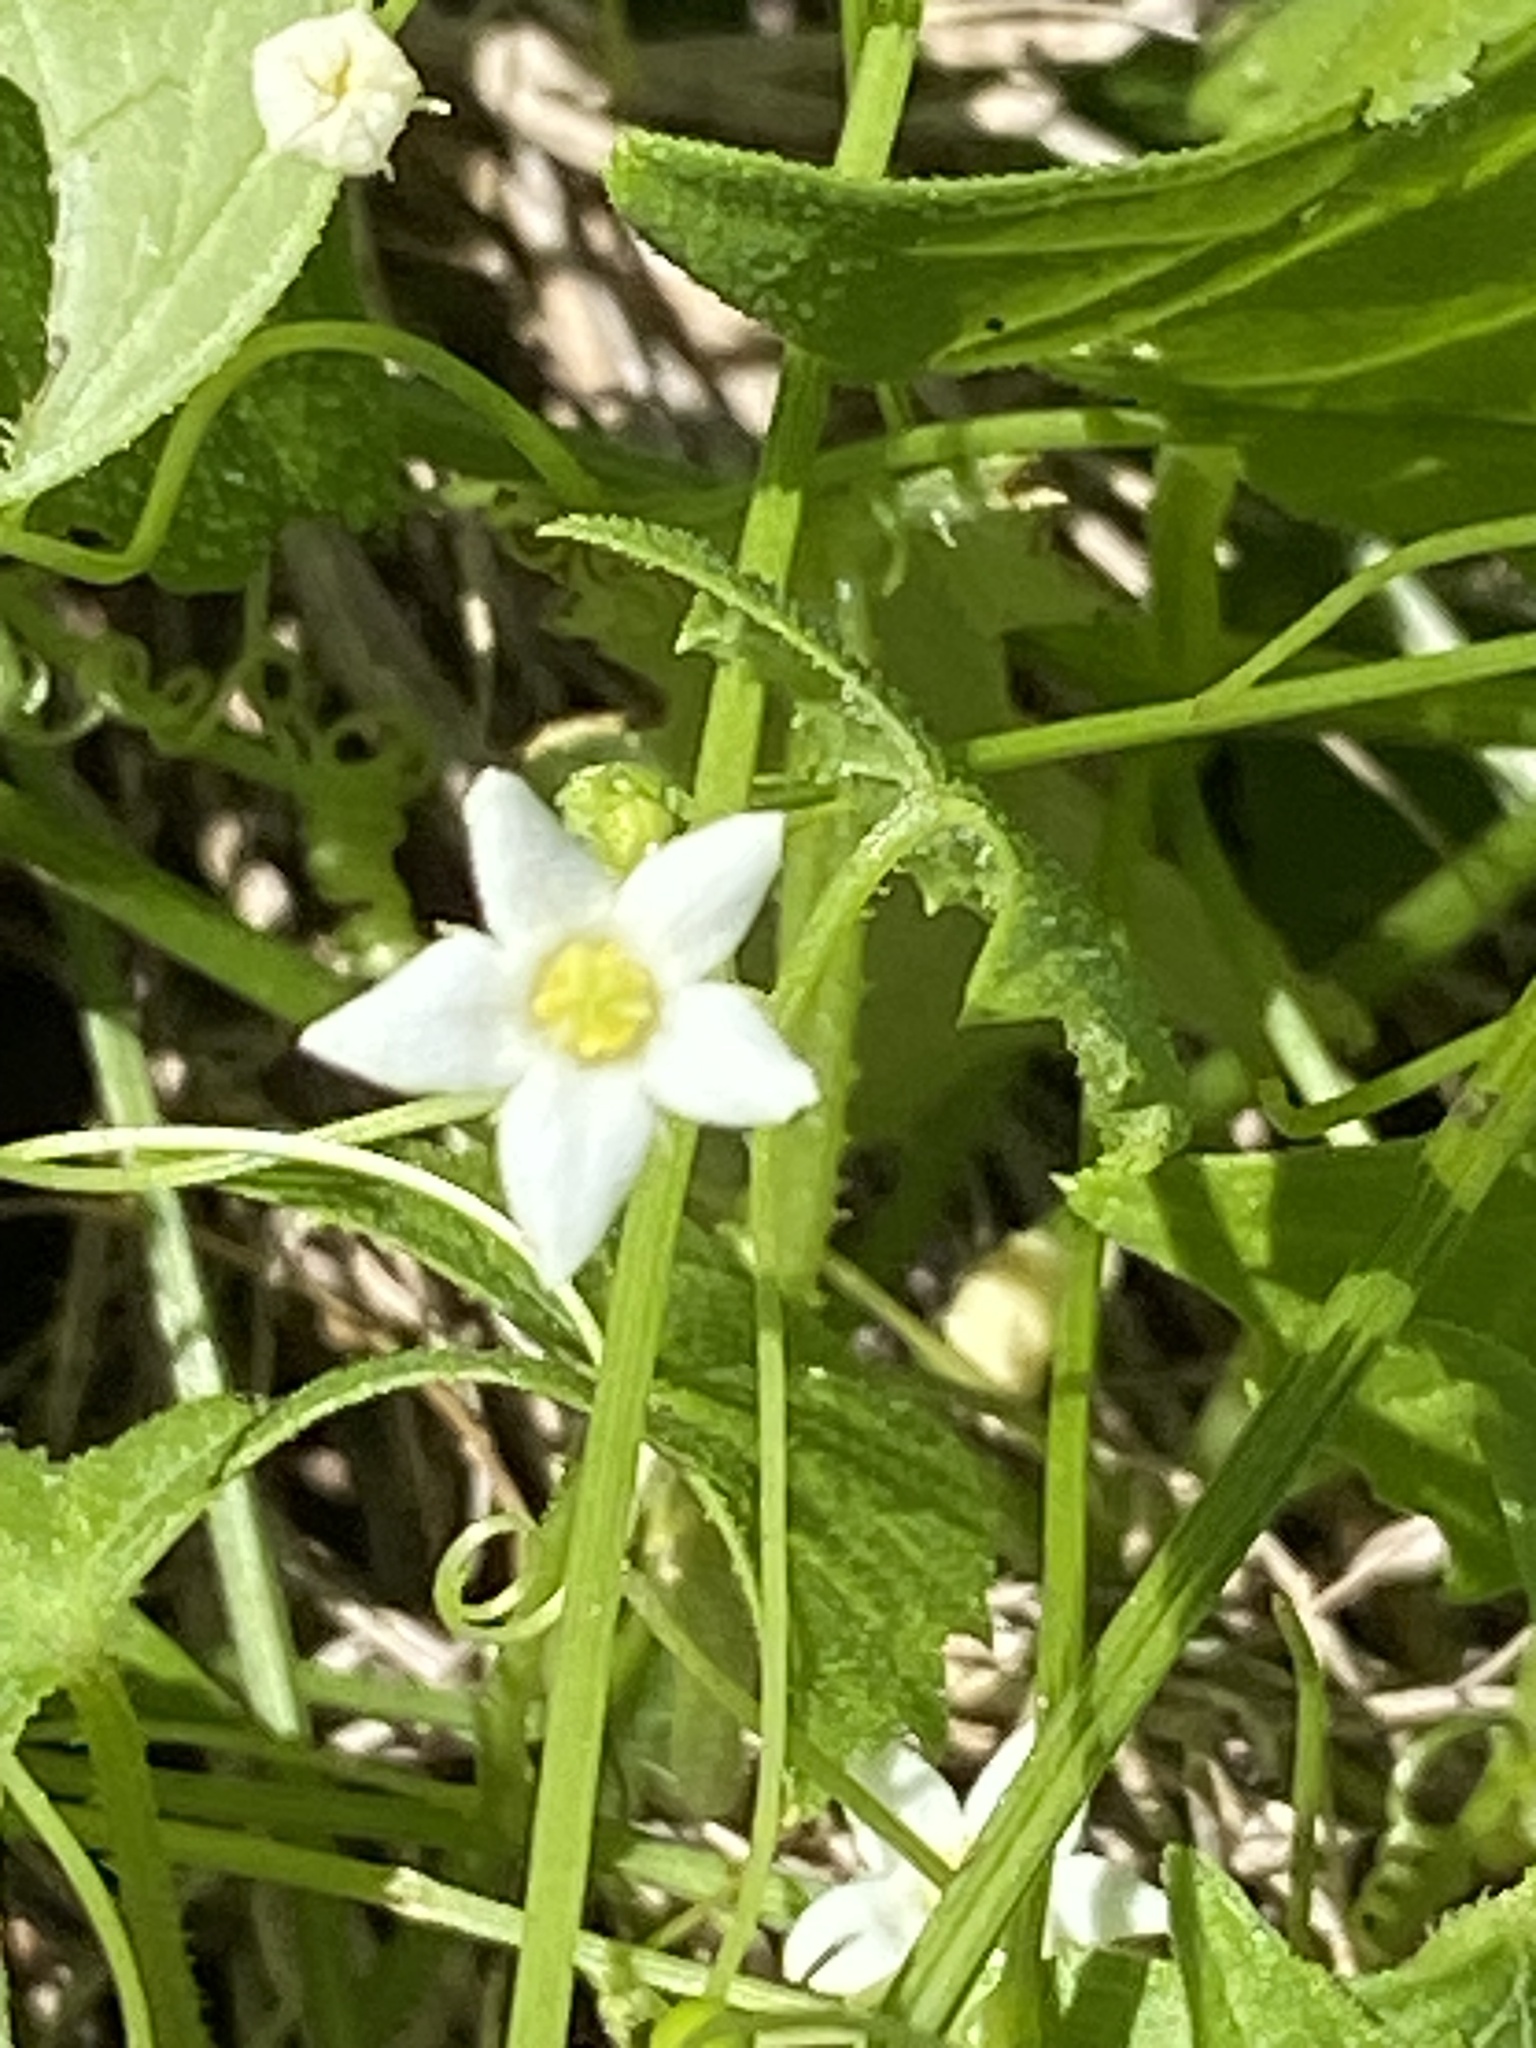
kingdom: Plantae
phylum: Tracheophyta
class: Magnoliopsida
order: Cucurbitales
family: Cucurbitaceae
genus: Zehneria
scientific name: Zehneria cunninghamii
